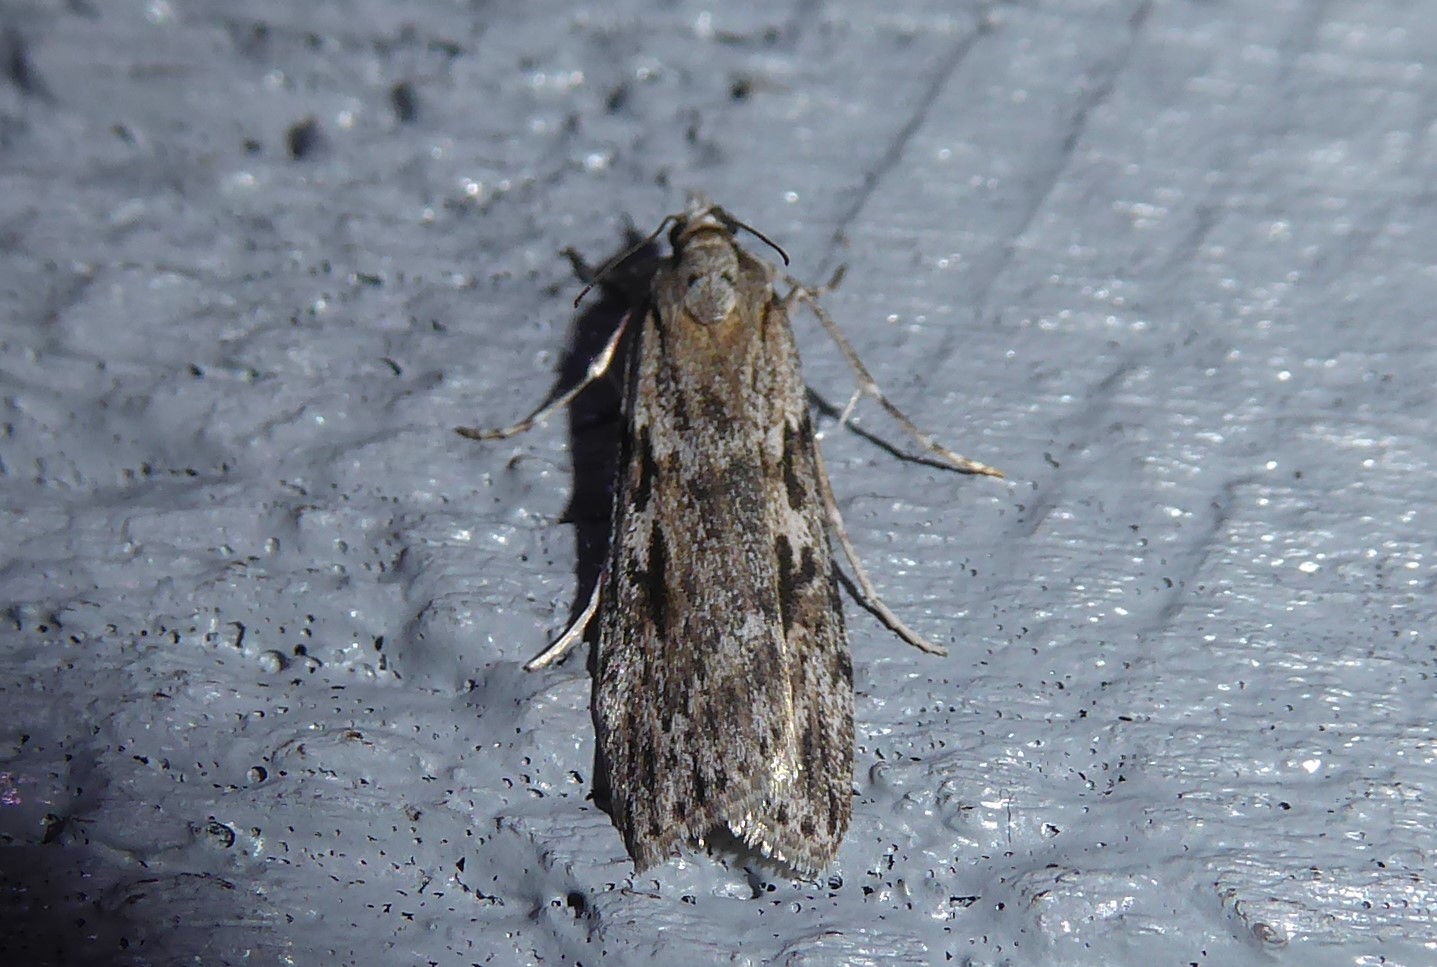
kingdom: Animalia
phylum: Arthropoda
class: Insecta
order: Lepidoptera
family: Crambidae
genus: Scoparia
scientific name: Scoparia halopis
